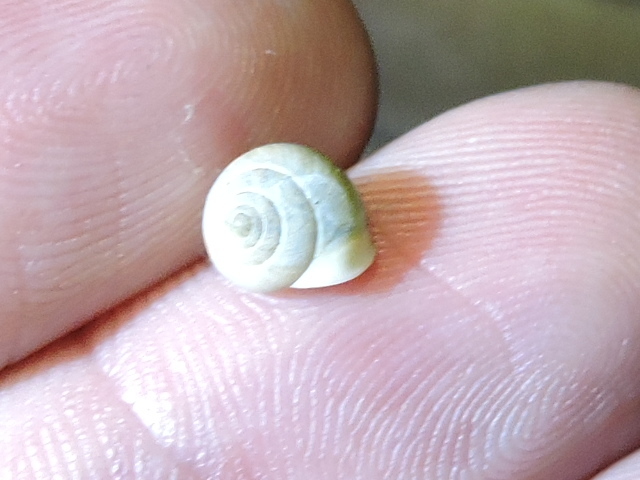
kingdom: Animalia
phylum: Mollusca
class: Gastropoda
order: Cycloneritida
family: Helicinidae
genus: Helicina
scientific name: Helicina orbiculata
